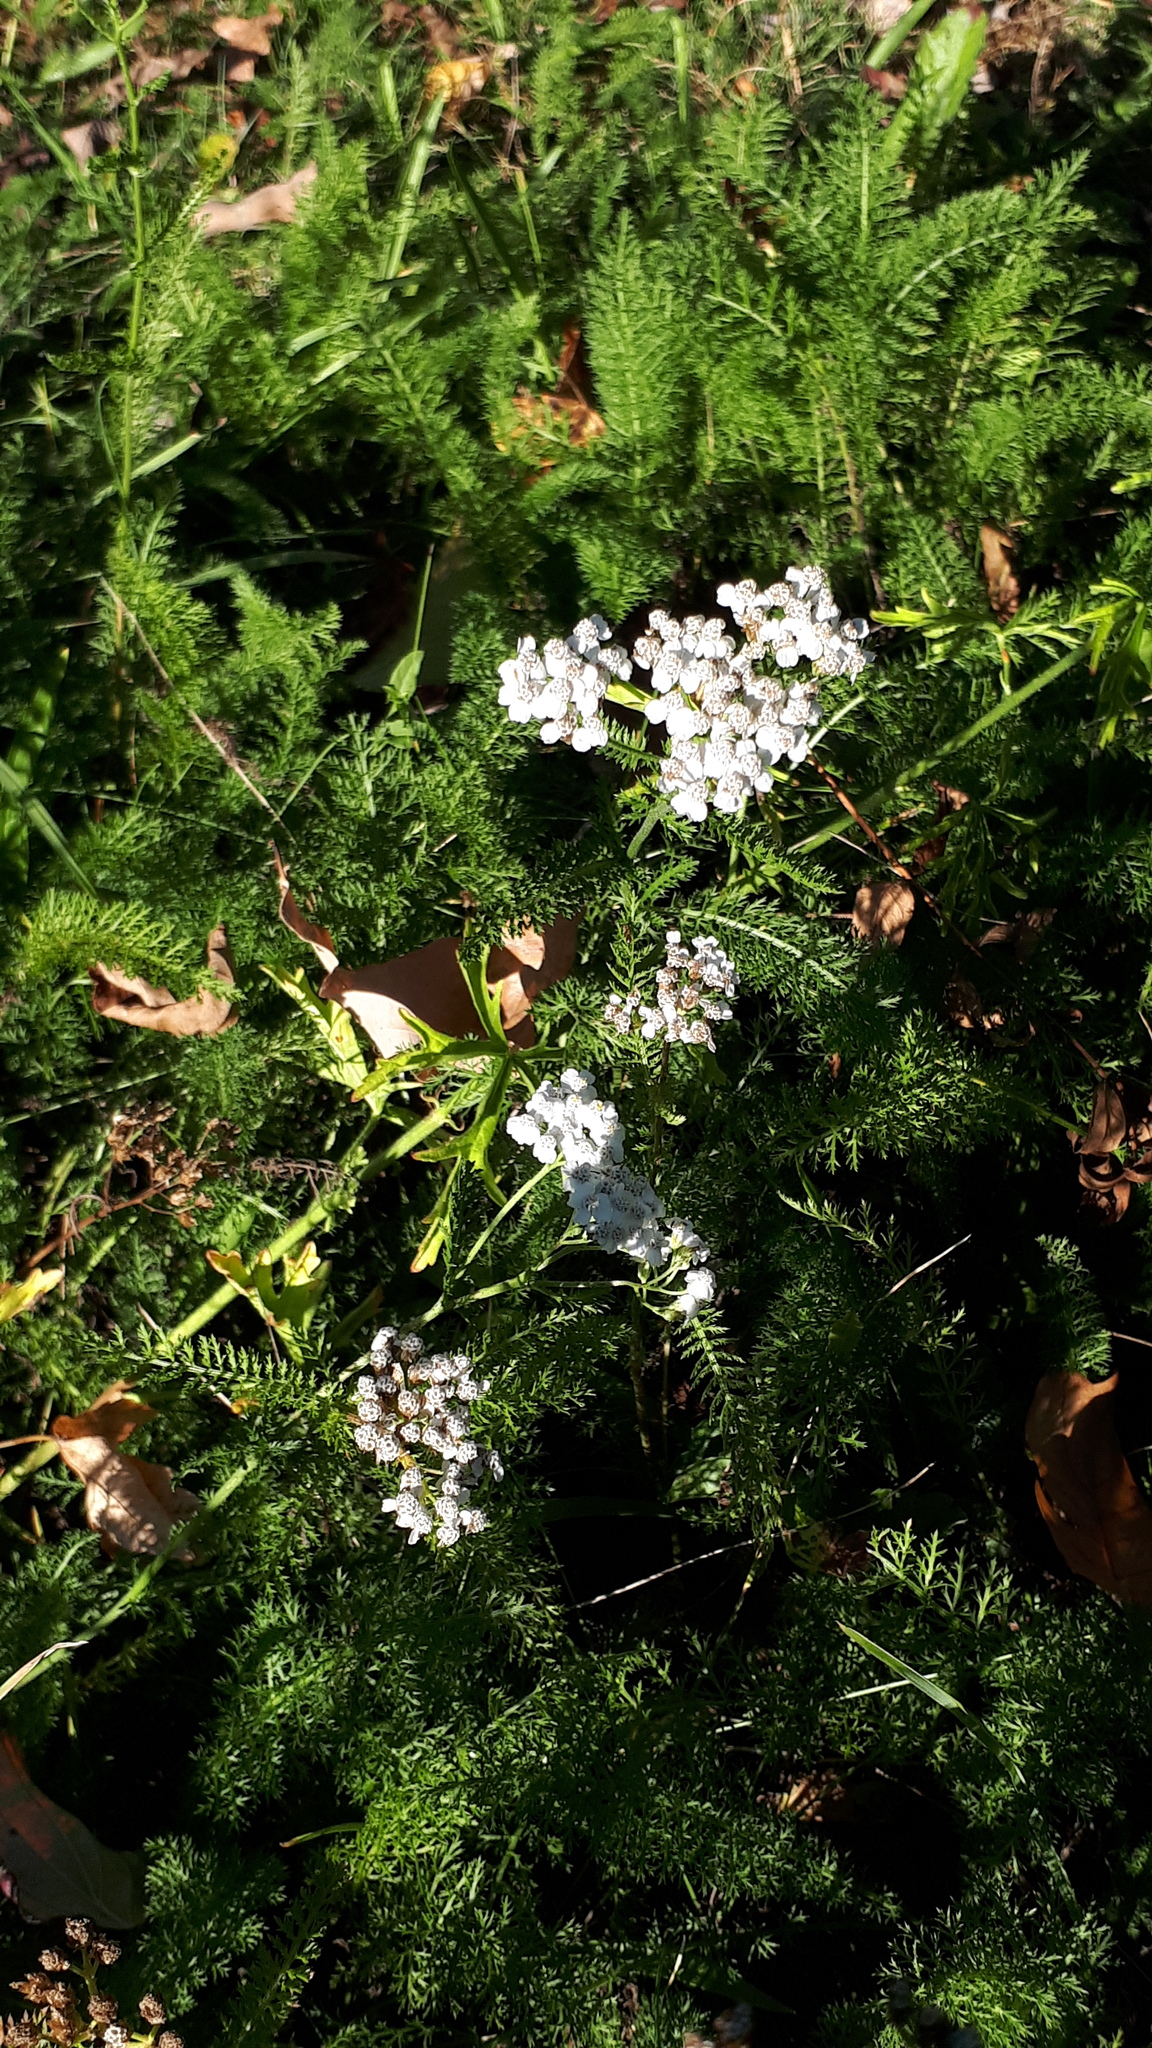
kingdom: Plantae
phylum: Tracheophyta
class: Magnoliopsida
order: Asterales
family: Asteraceae
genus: Achillea
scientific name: Achillea millefolium
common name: Yarrow
